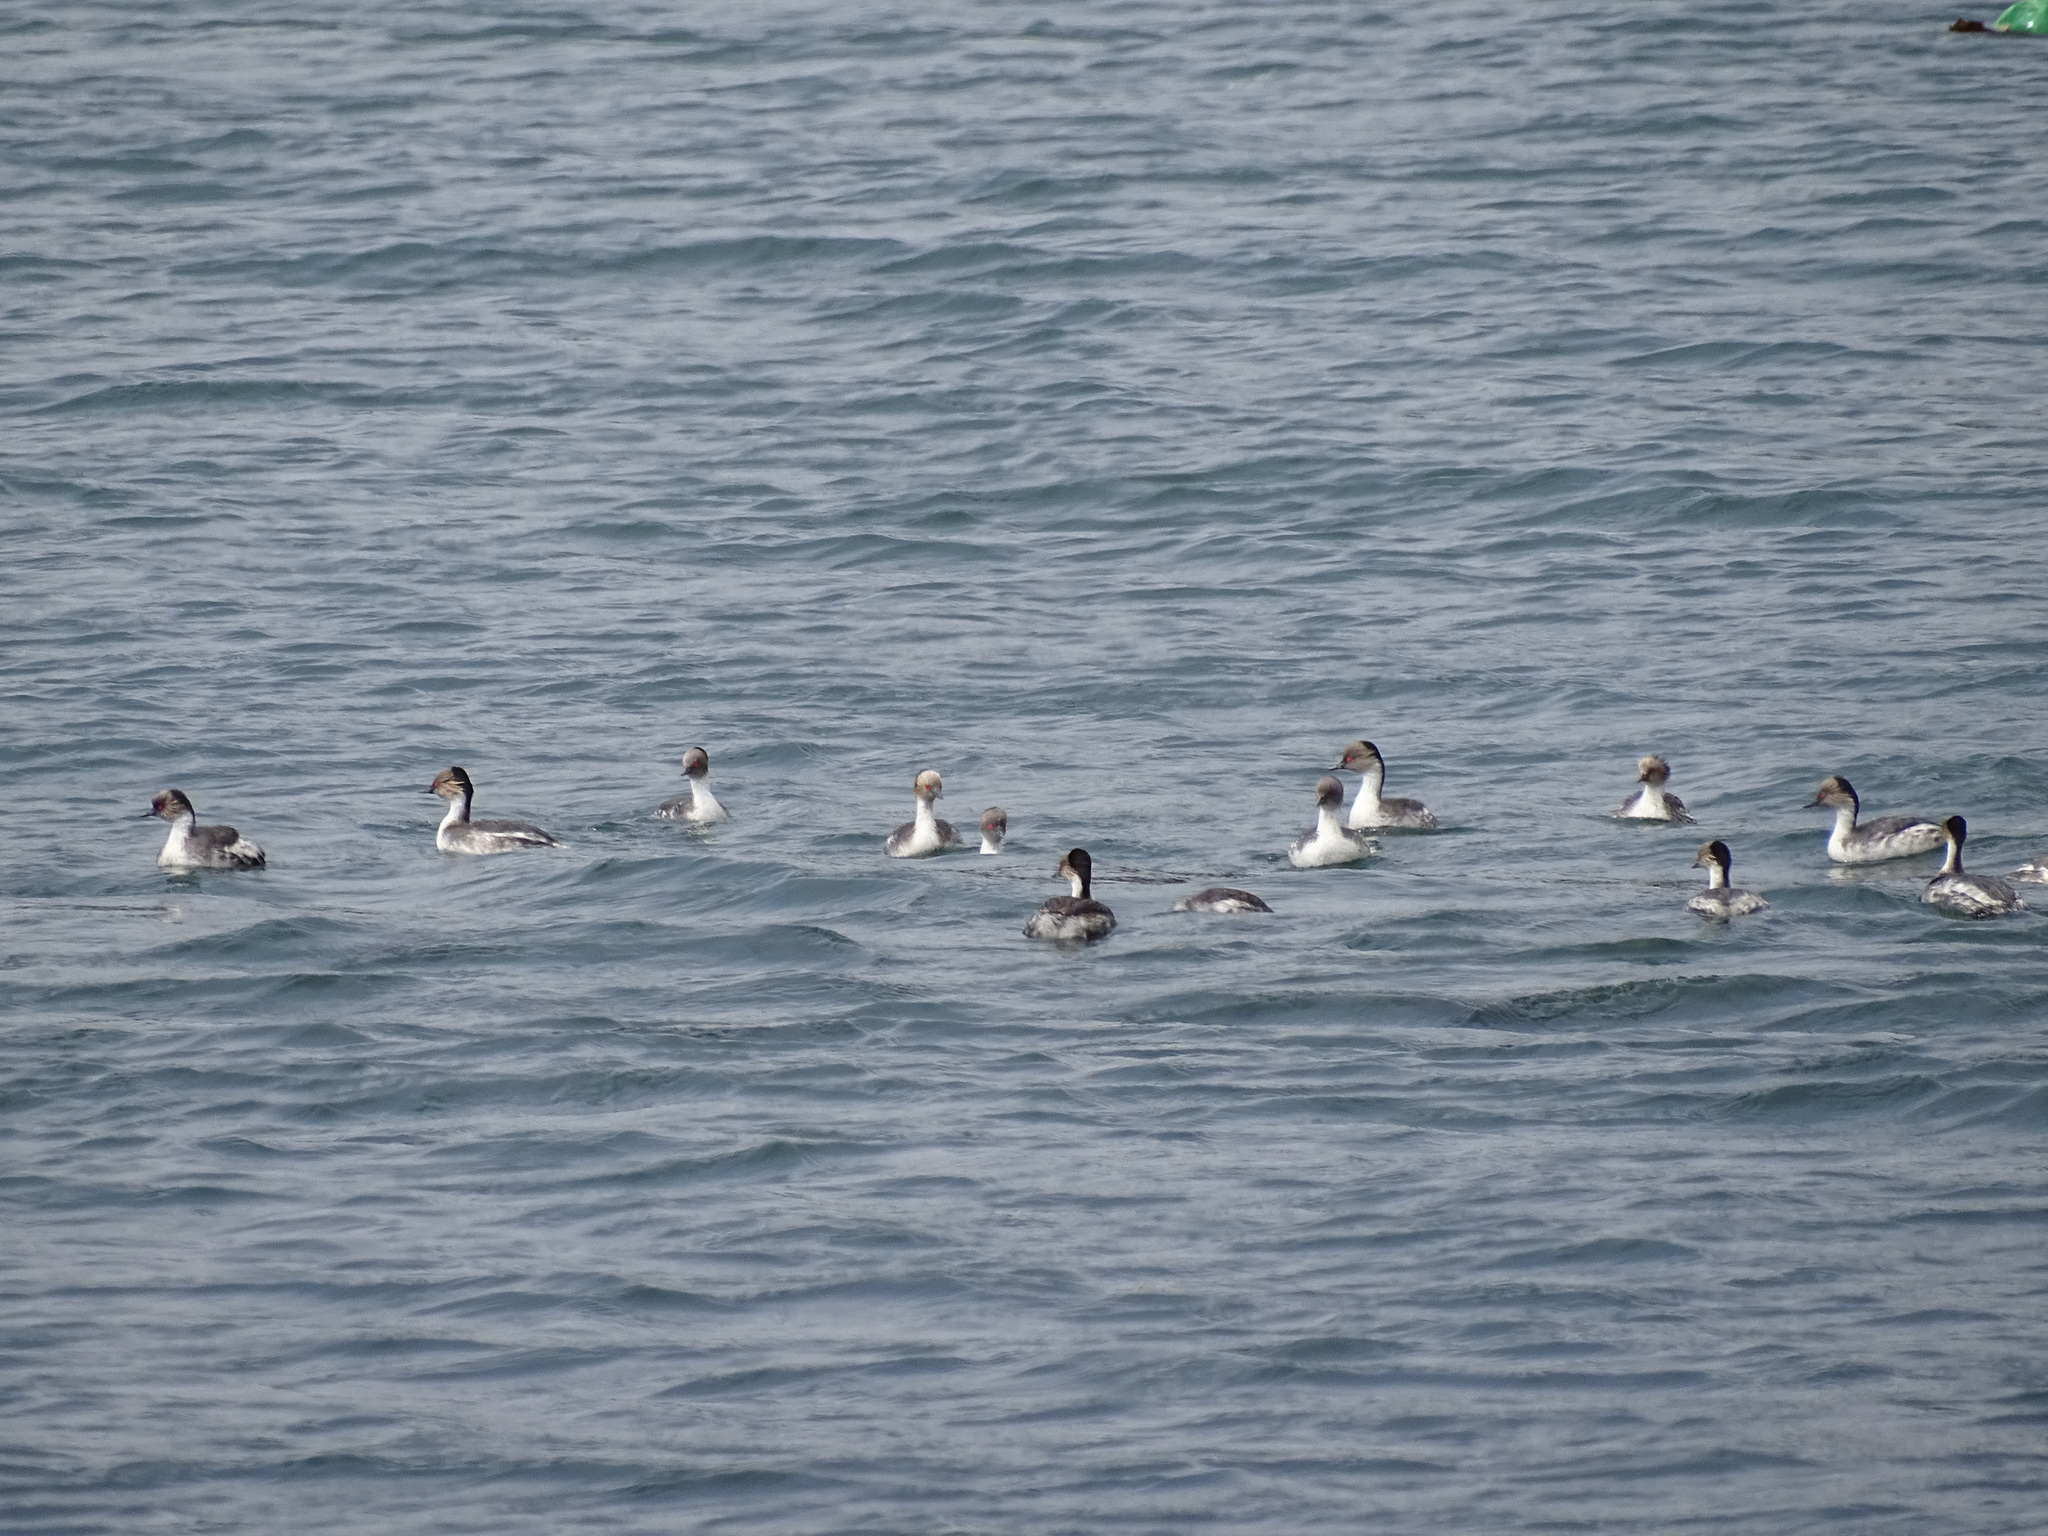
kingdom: Animalia
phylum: Chordata
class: Aves
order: Podicipediformes
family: Podicipedidae
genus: Podiceps
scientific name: Podiceps occipitalis
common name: Silvery grebe
